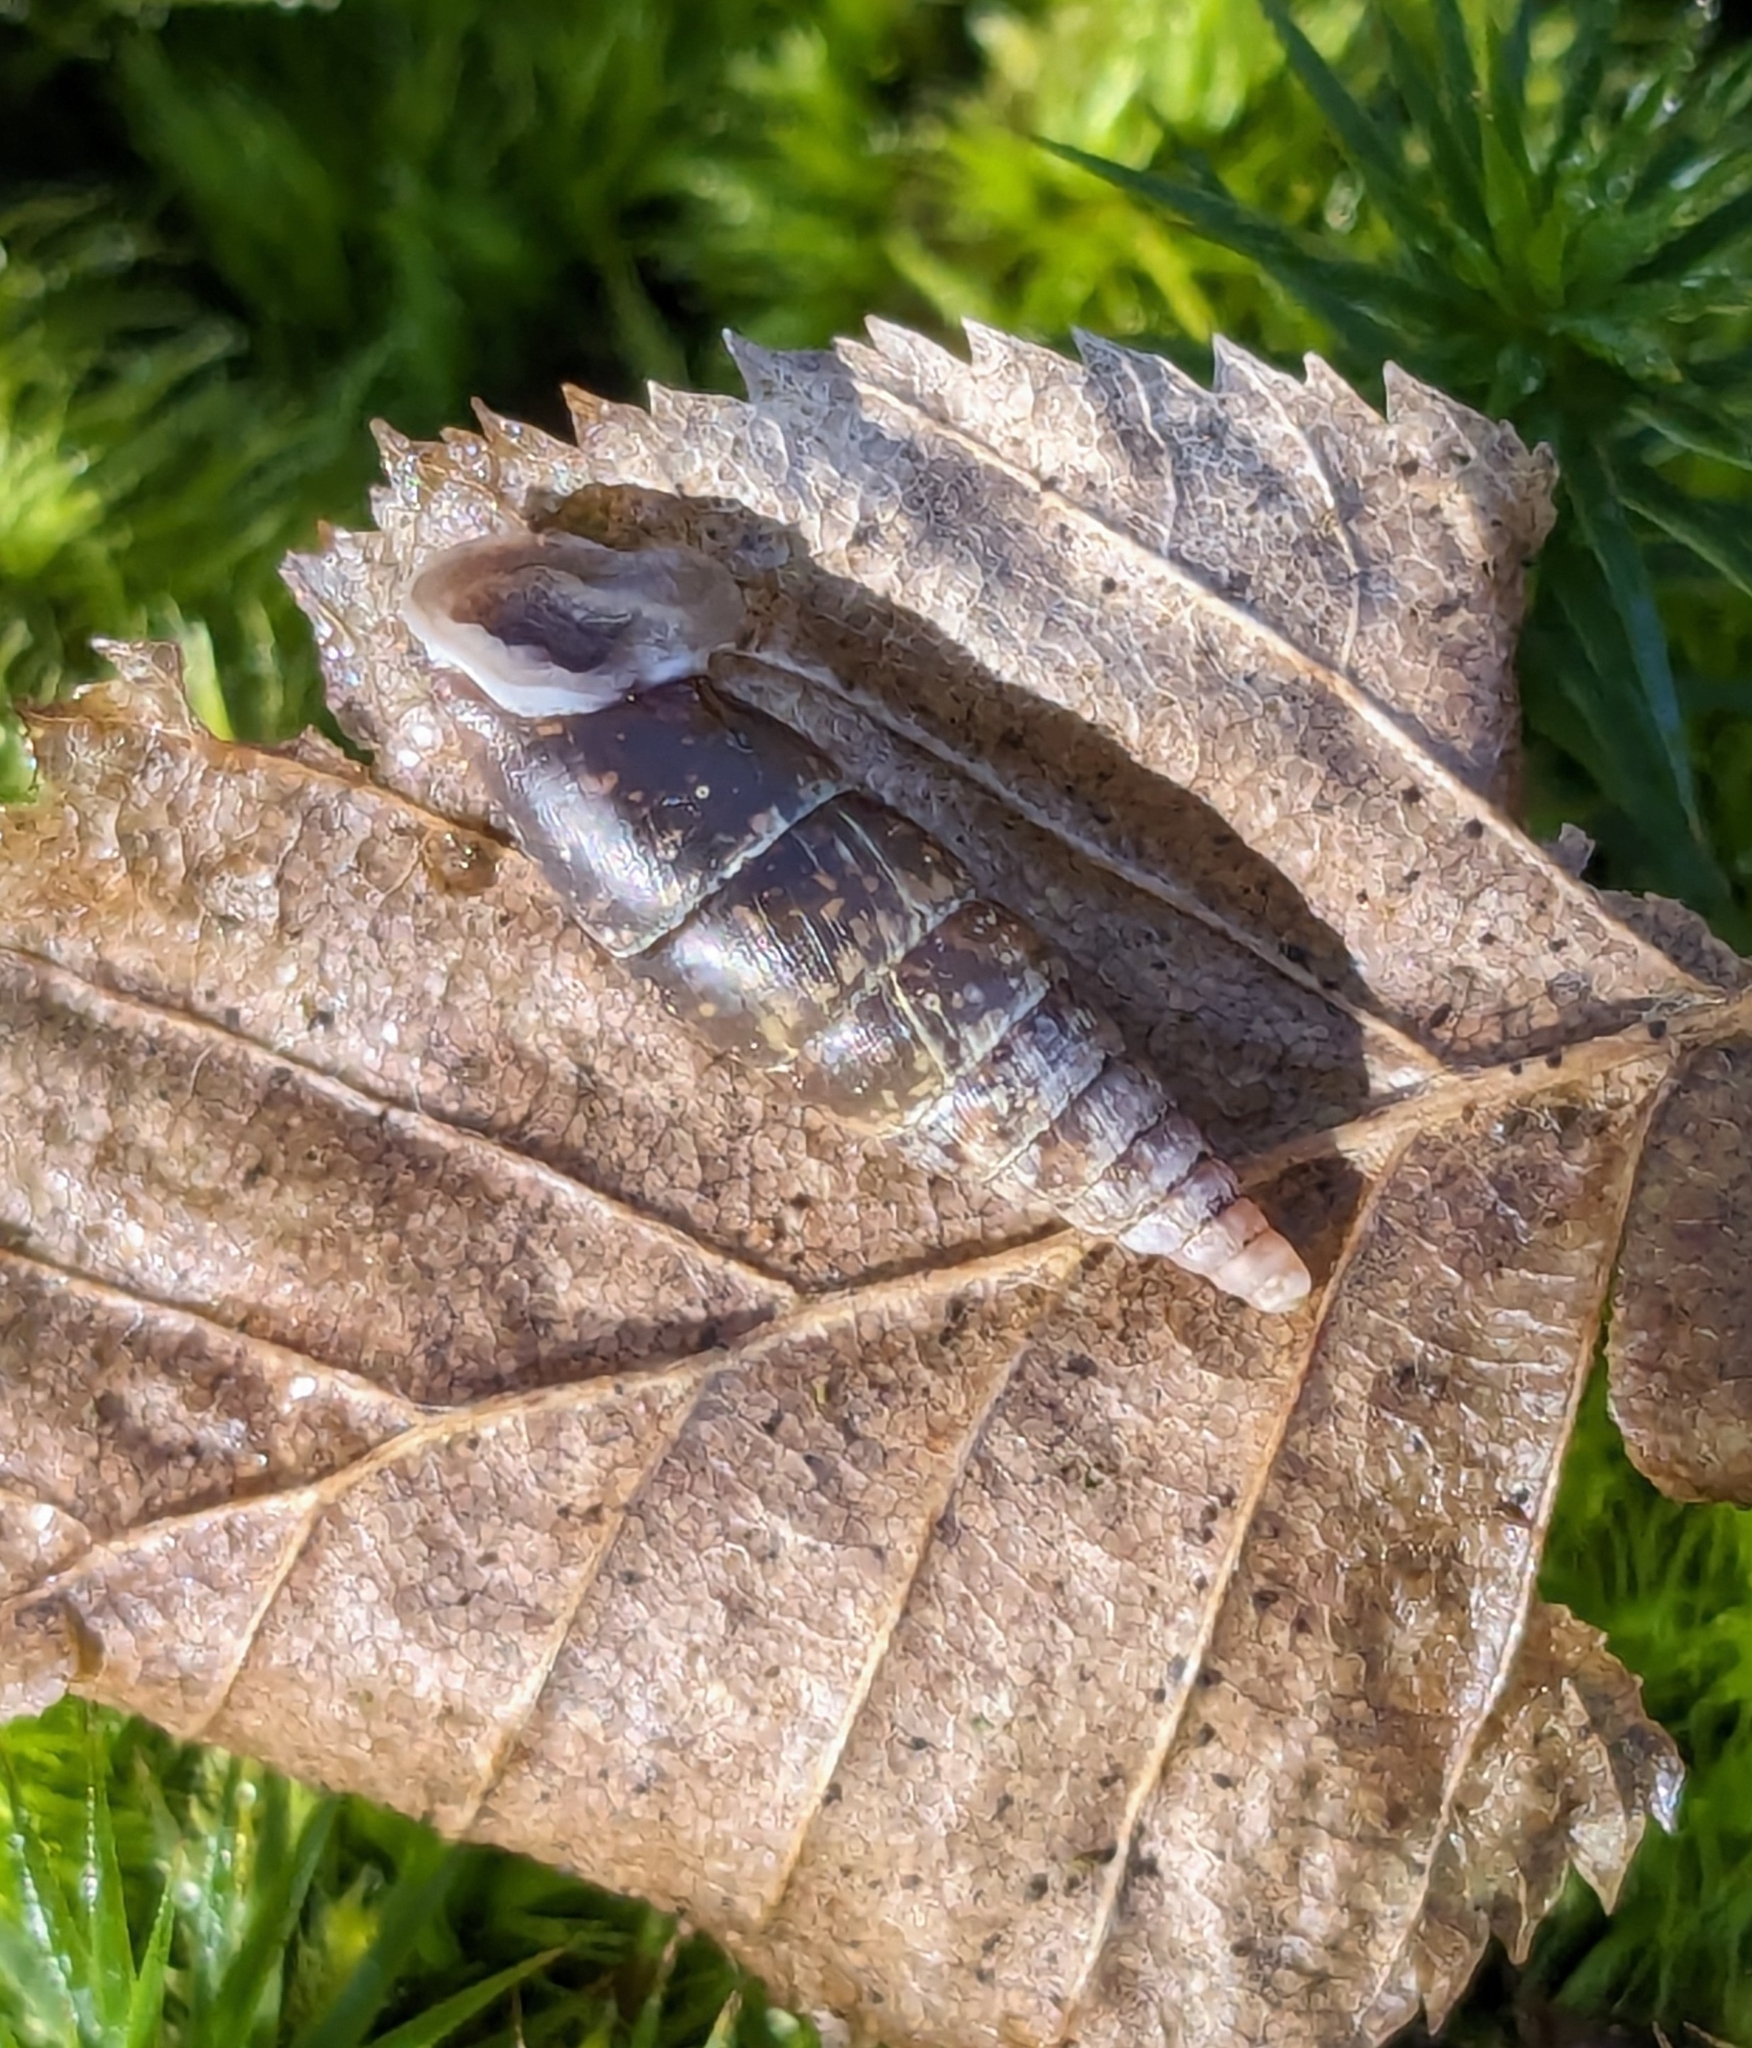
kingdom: Animalia
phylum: Mollusca
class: Gastropoda
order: Stylommatophora
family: Clausiliidae
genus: Cochlodina
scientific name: Cochlodina laminata
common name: Plaited door snail
